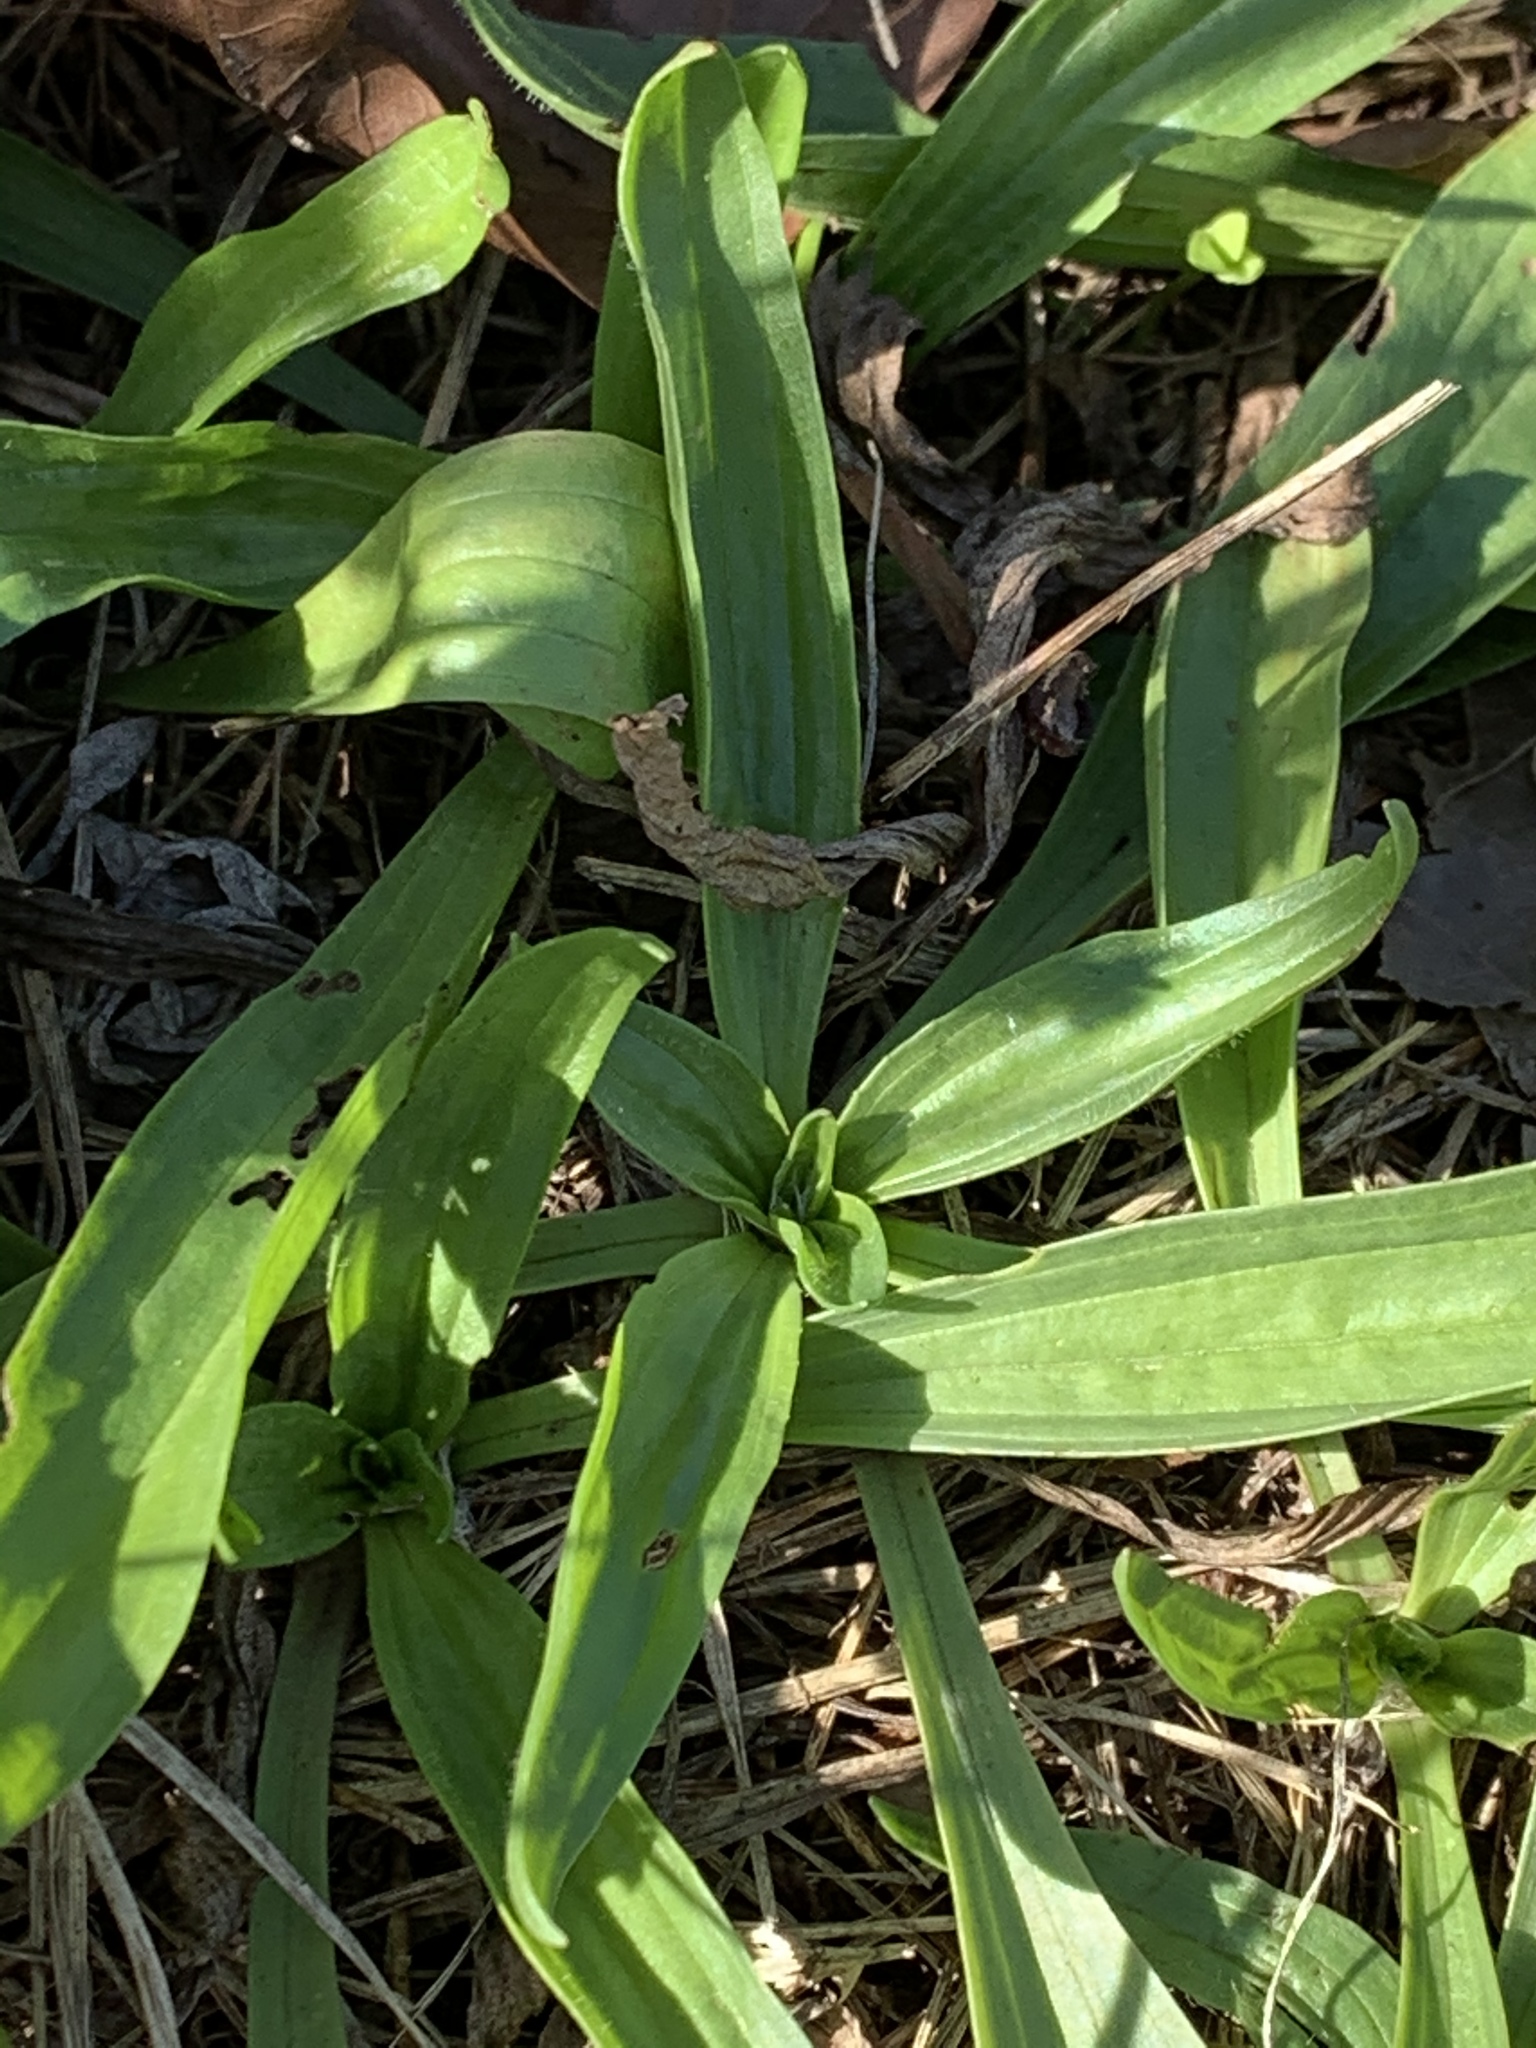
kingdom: Plantae
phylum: Tracheophyta
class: Magnoliopsida
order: Lamiales
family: Plantaginaceae
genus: Plantago
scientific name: Plantago lanceolata
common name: Ribwort plantain
